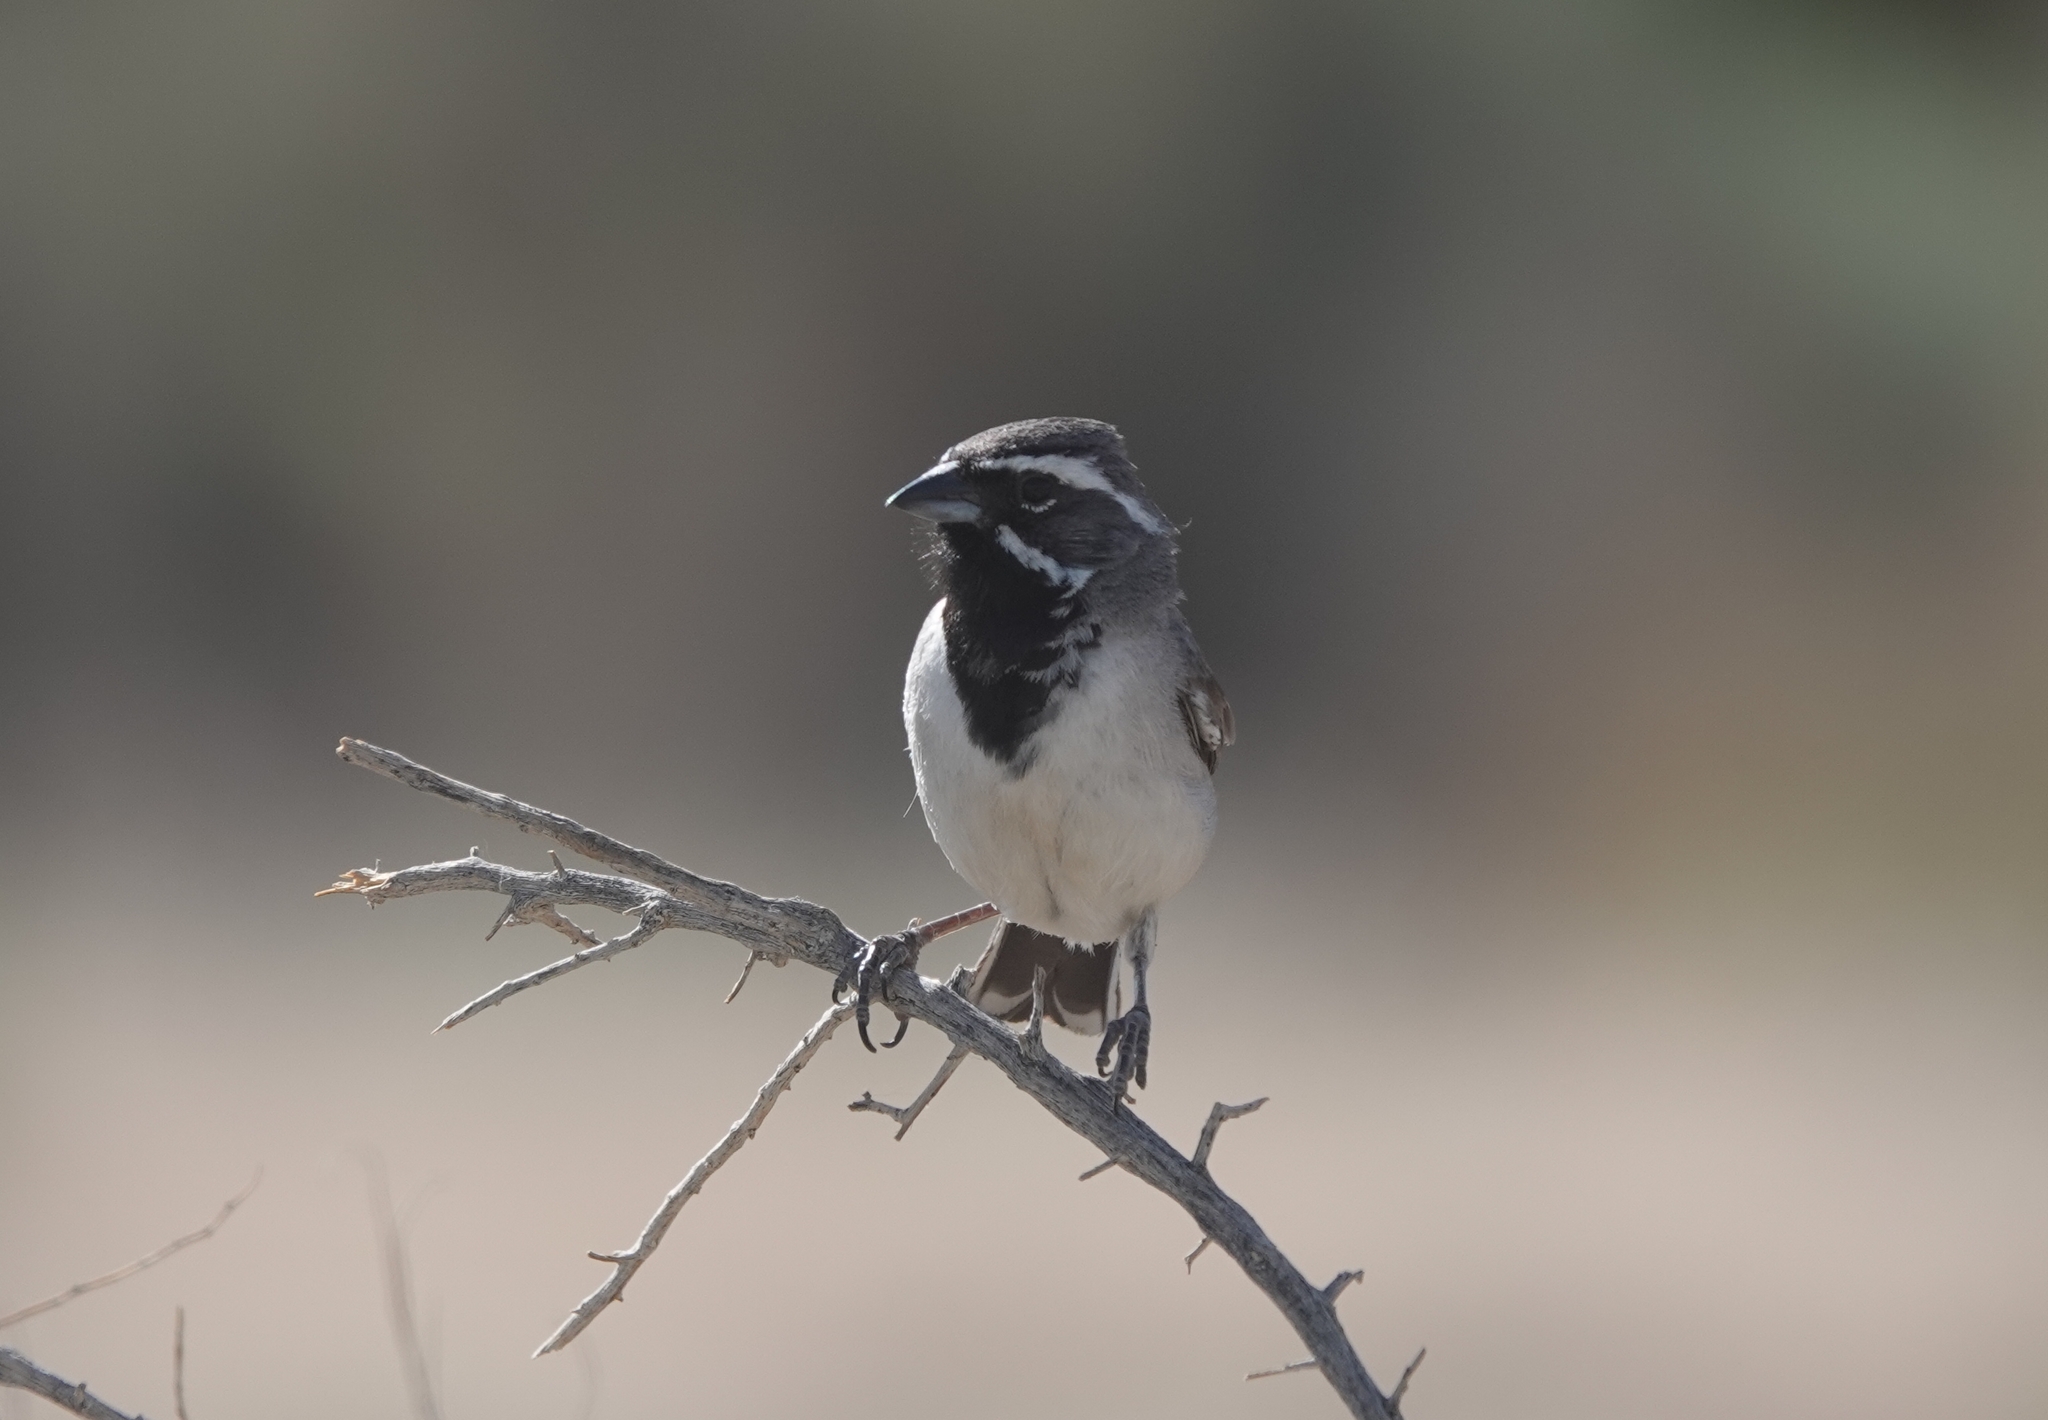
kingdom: Animalia
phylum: Chordata
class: Aves
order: Passeriformes
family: Passerellidae
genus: Amphispiza
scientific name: Amphispiza bilineata
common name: Black-throated sparrow
